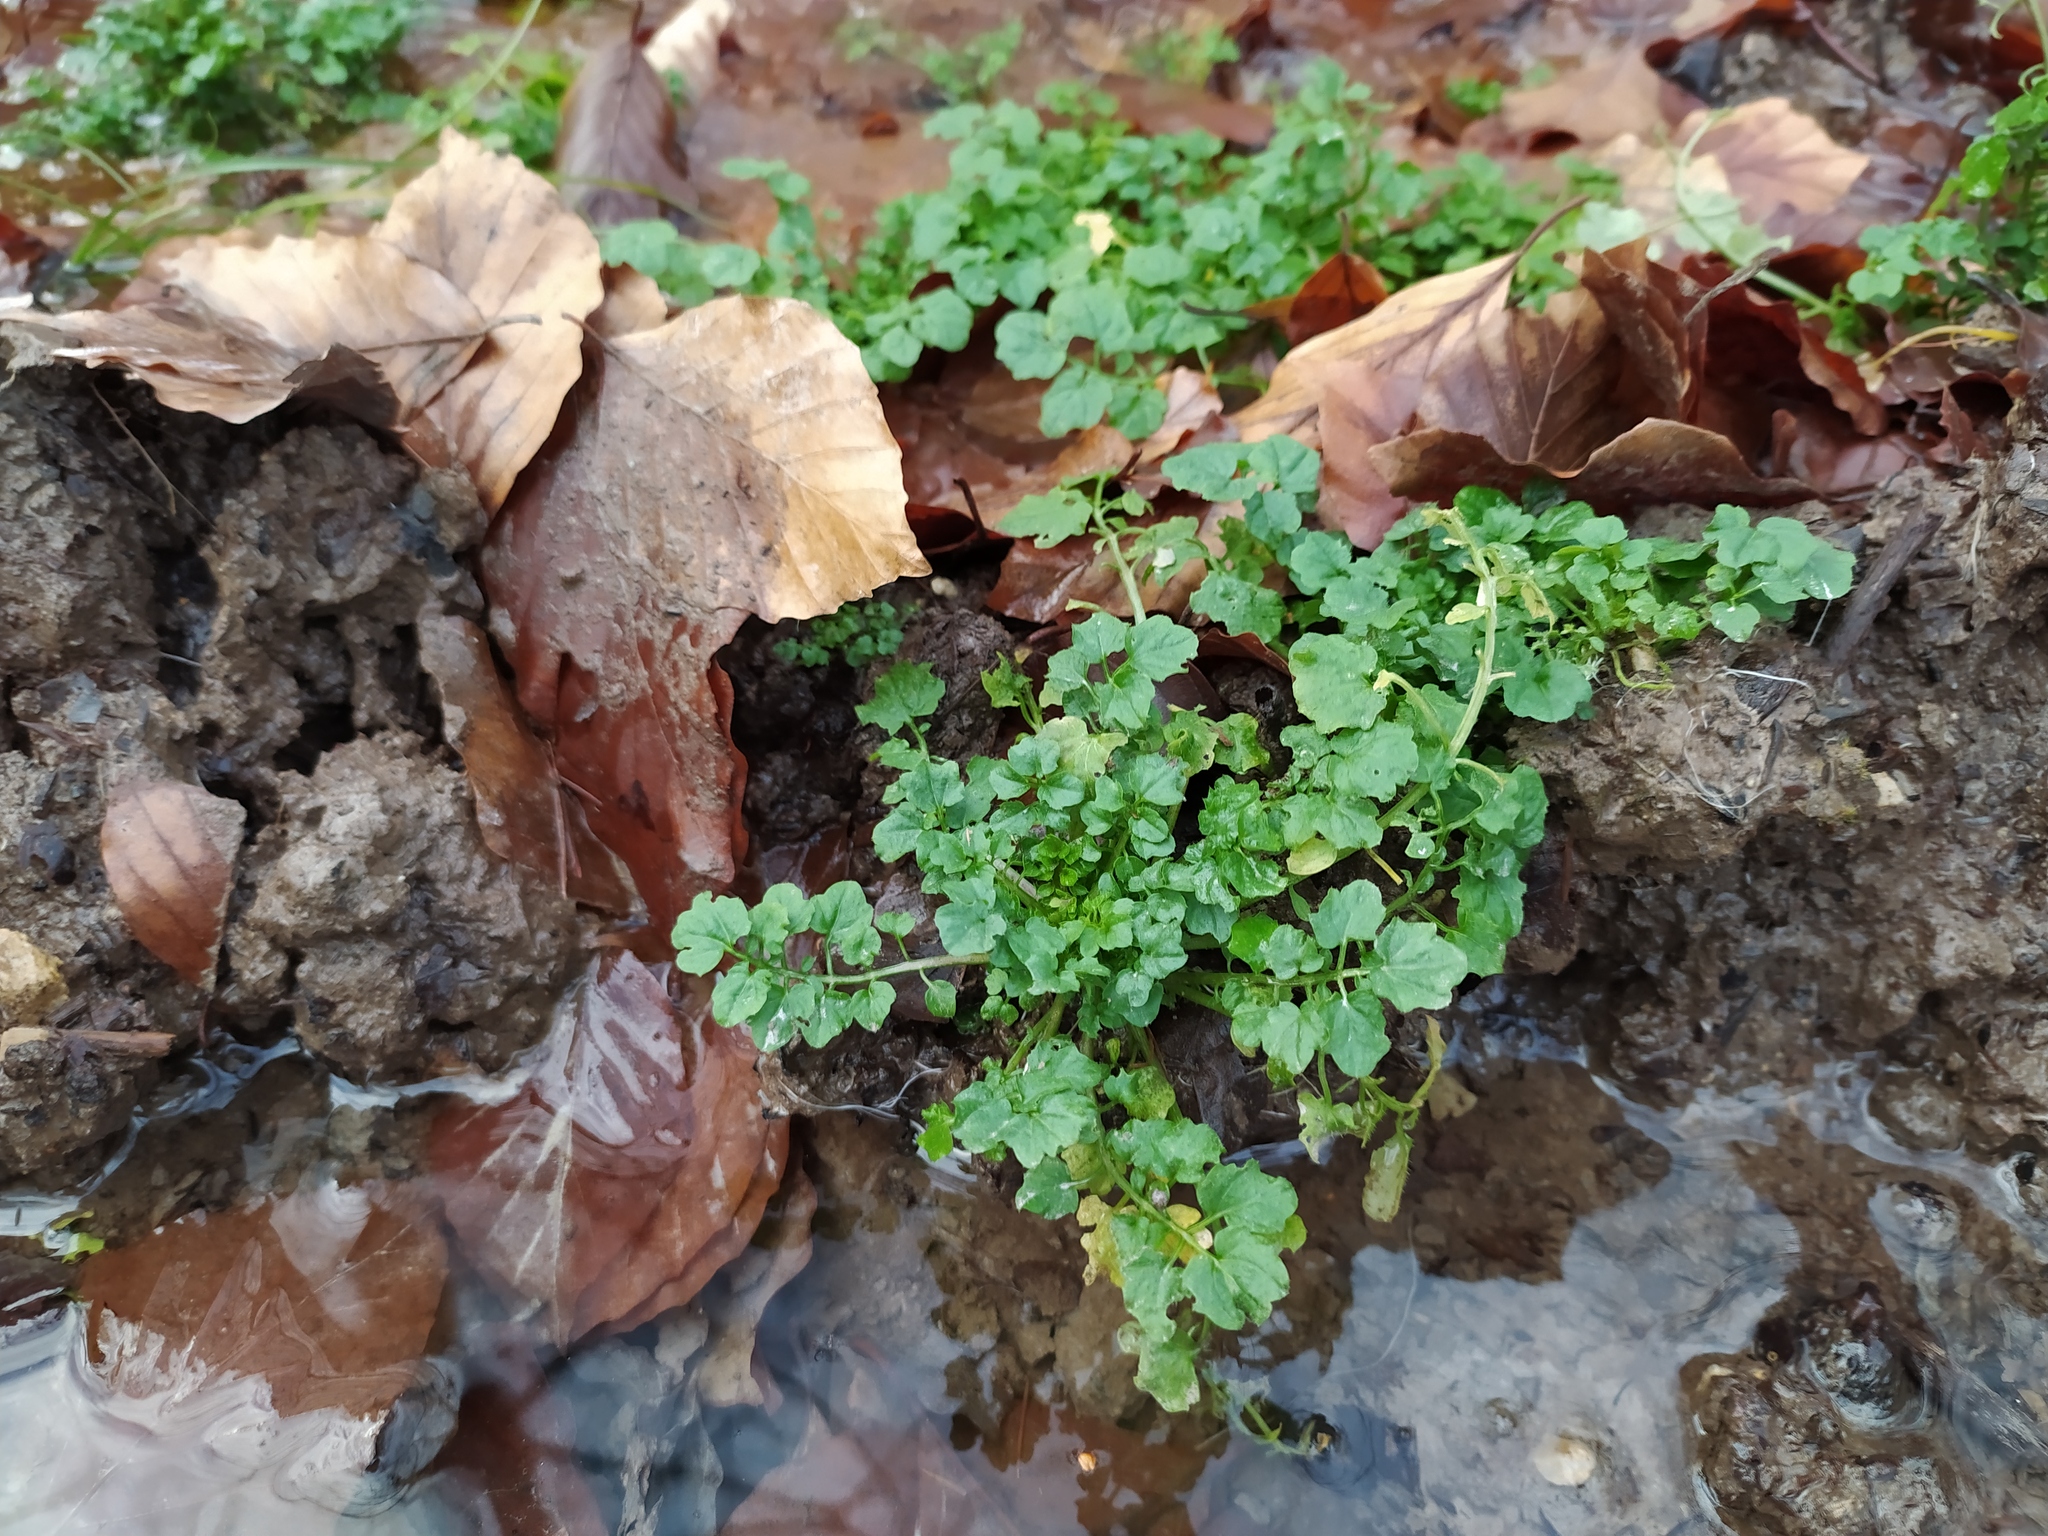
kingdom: Plantae
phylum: Tracheophyta
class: Magnoliopsida
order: Brassicales
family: Brassicaceae
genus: Cardamine
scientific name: Cardamine flexuosa
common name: Woodland bittercress
